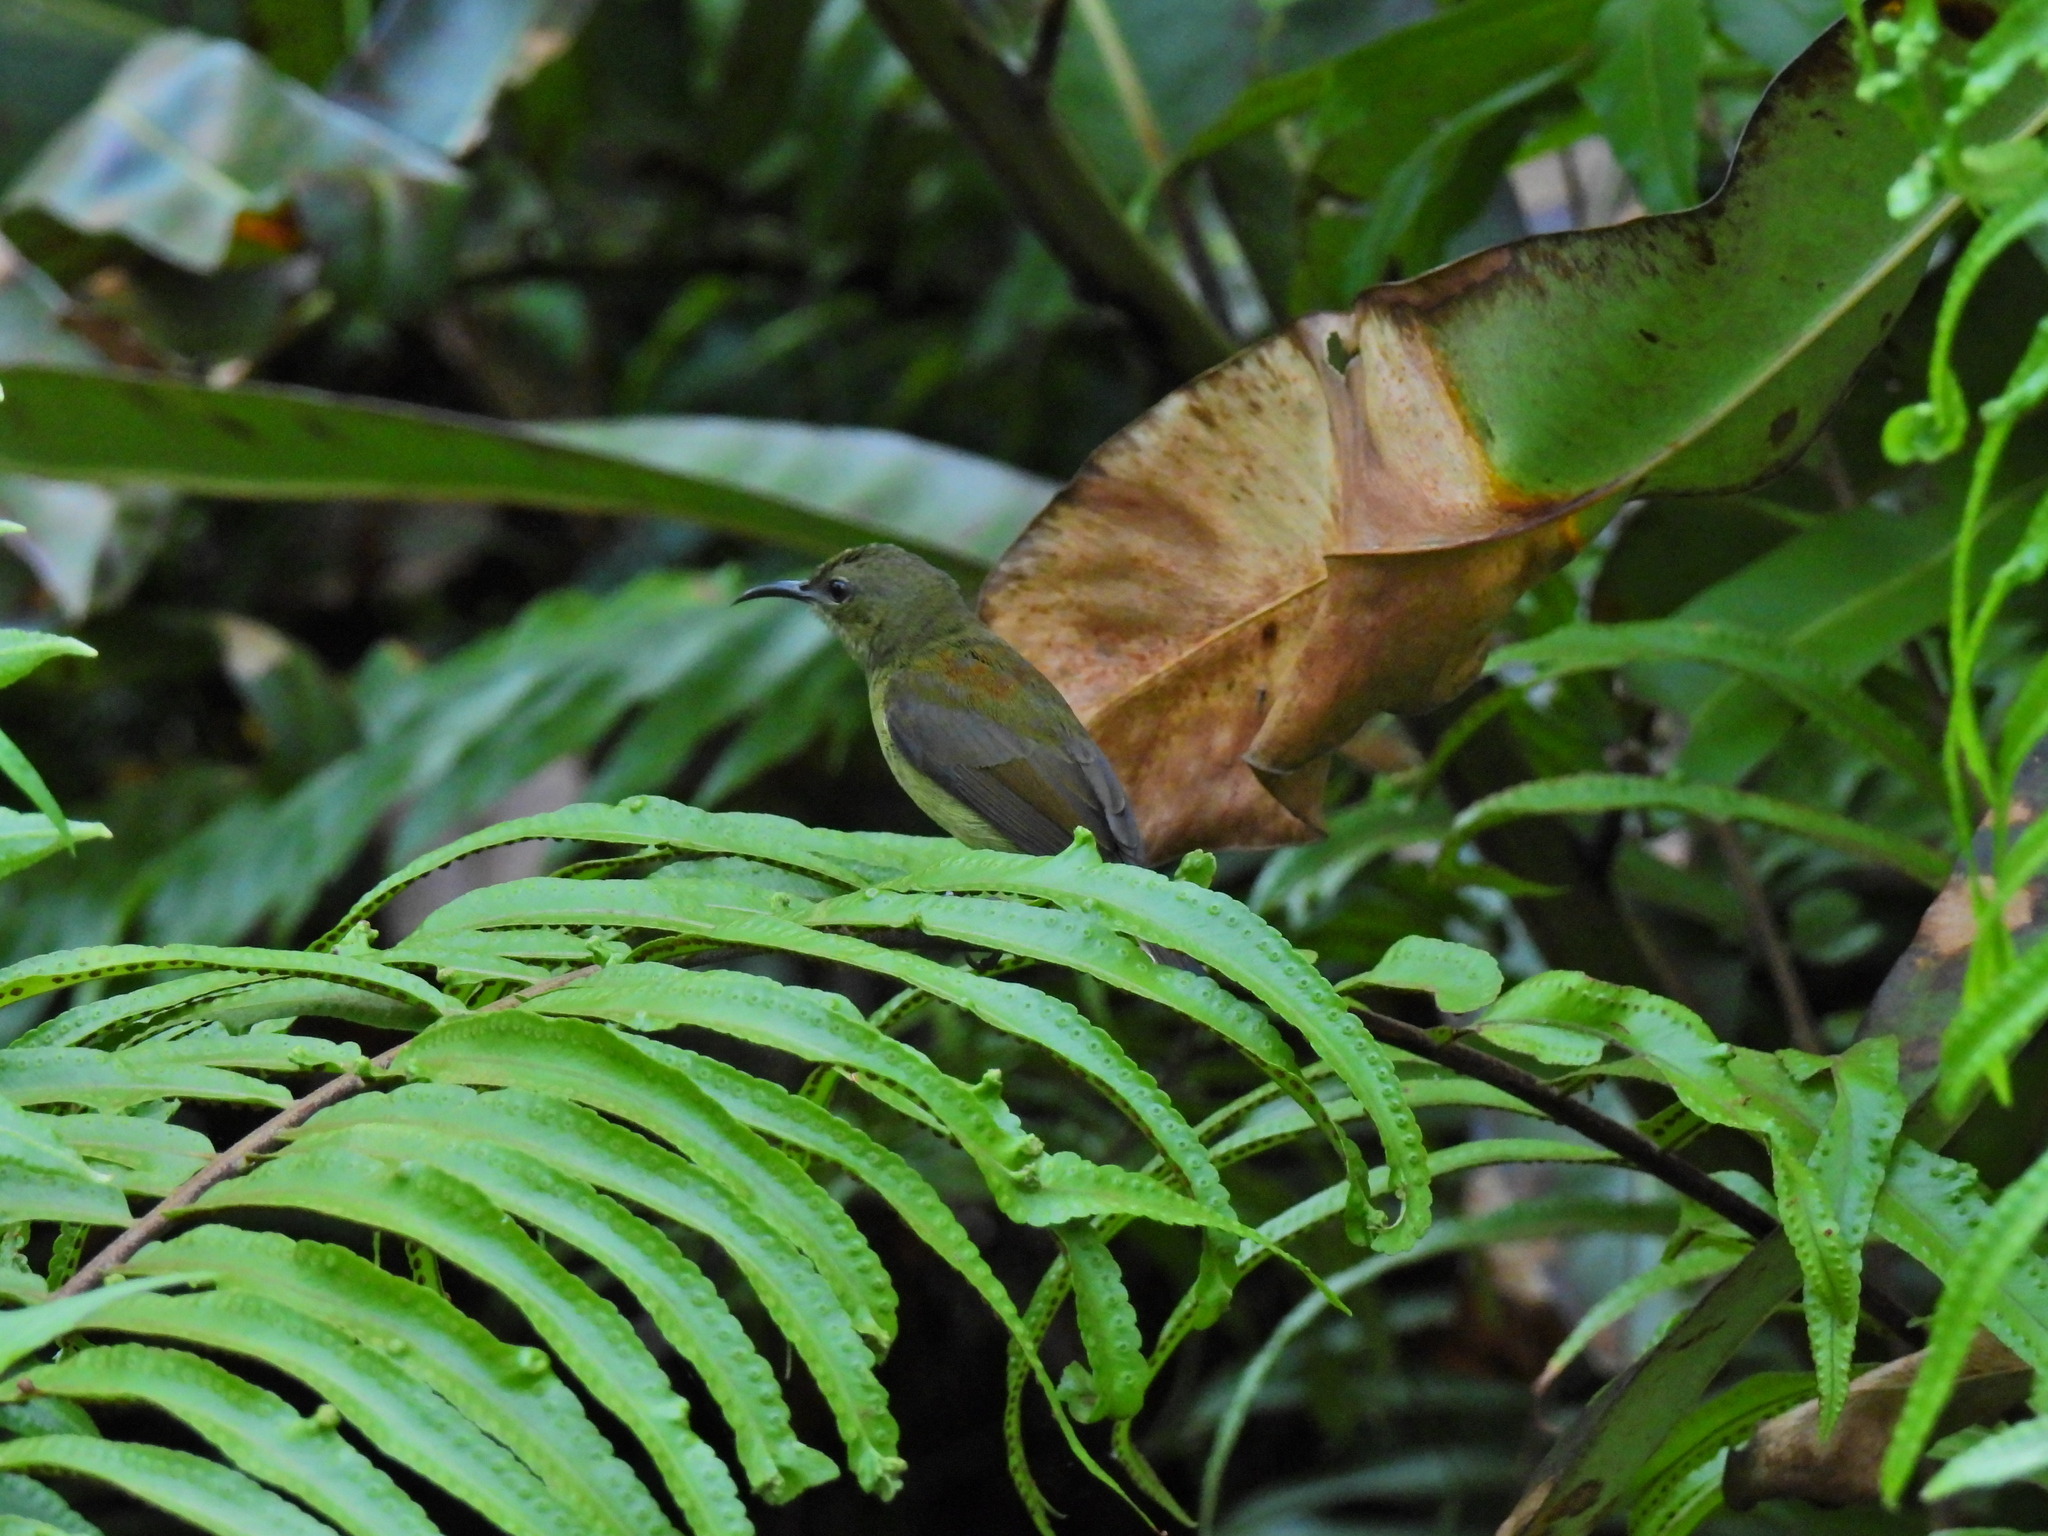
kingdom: Animalia
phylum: Chordata
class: Aves
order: Passeriformes
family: Nectariniidae
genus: Aethopyga
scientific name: Aethopyga siparaja
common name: Crimson sunbird
